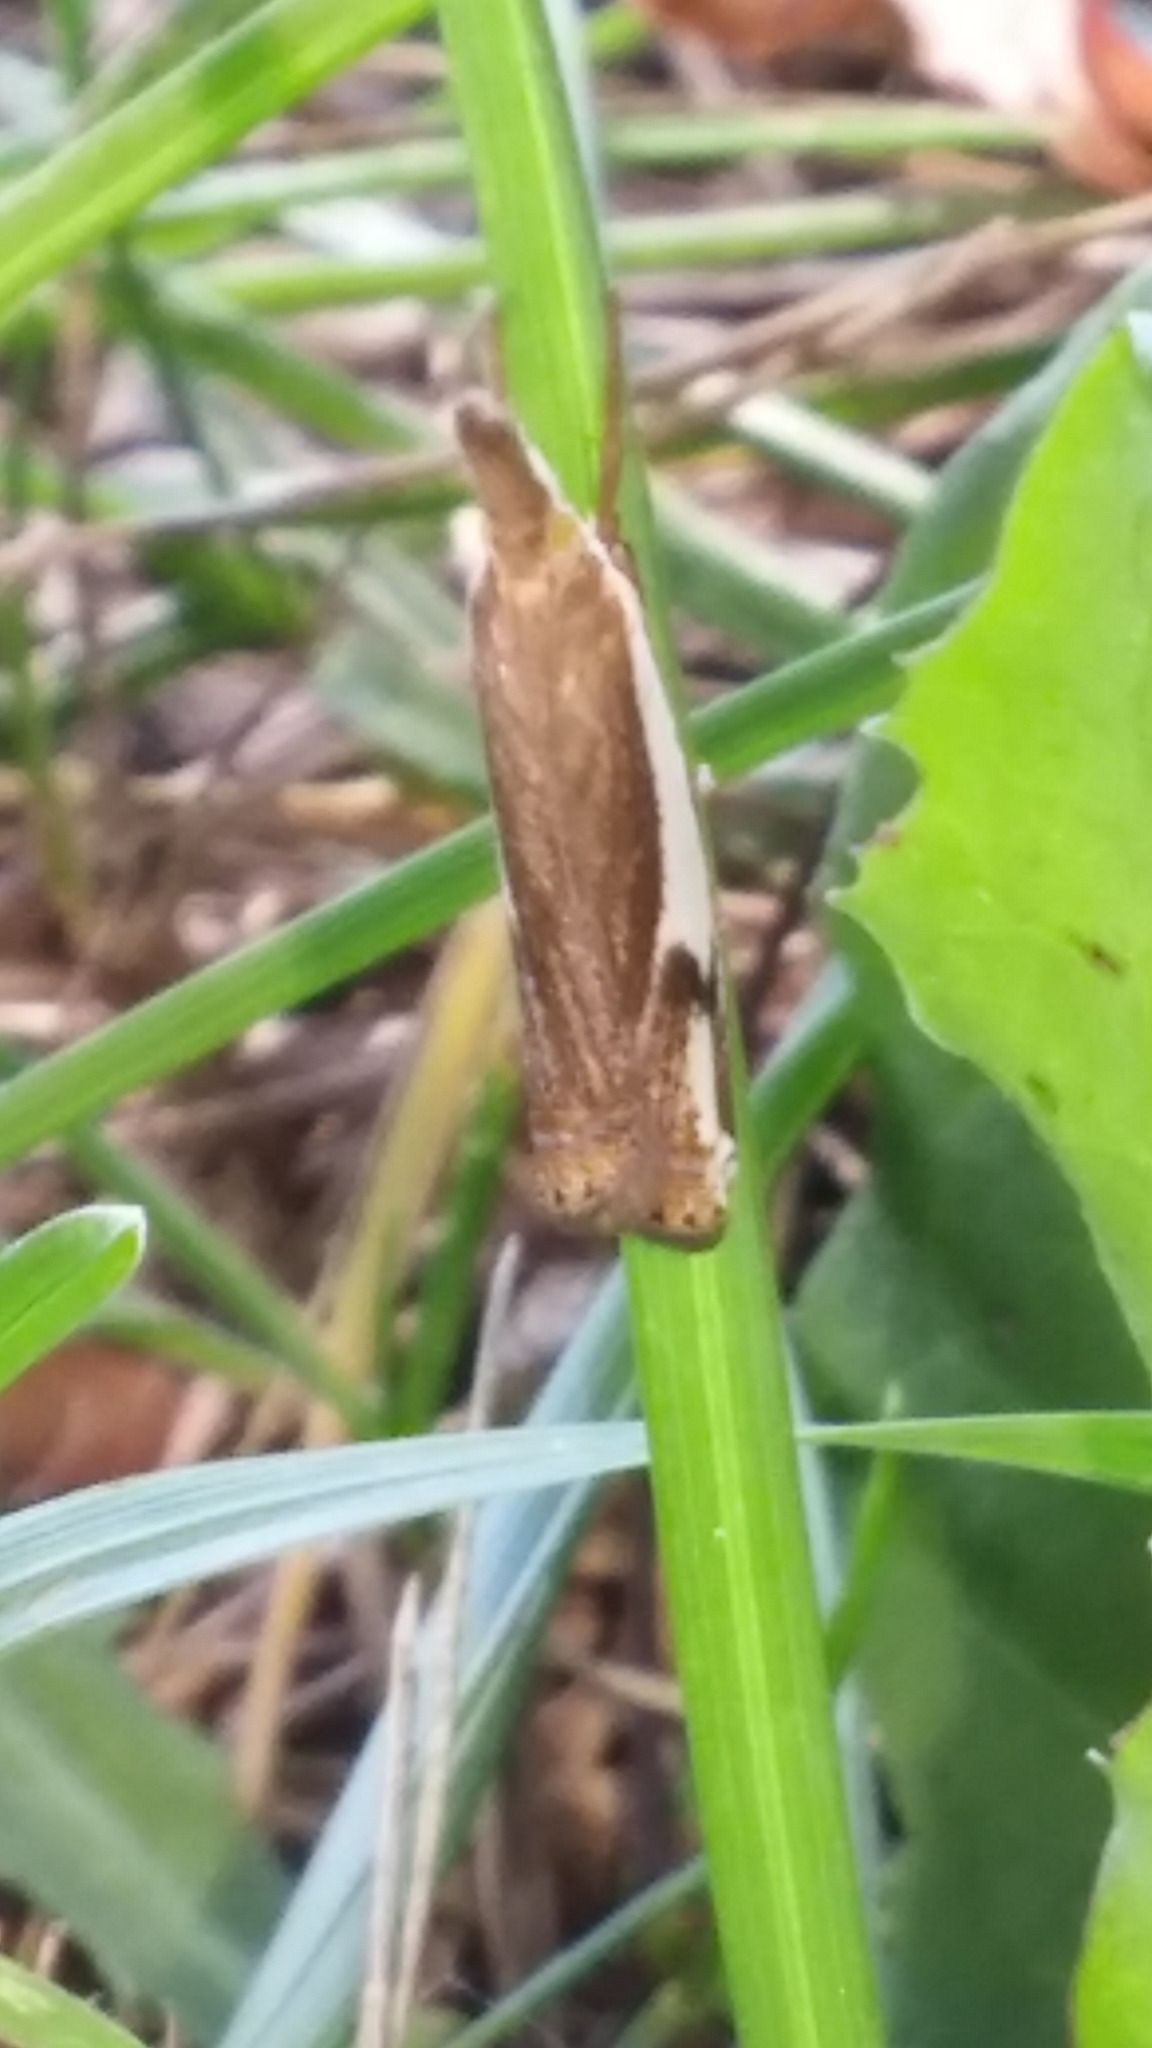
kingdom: Animalia
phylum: Arthropoda
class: Insecta
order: Lepidoptera
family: Crambidae
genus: Crambus
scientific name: Crambus agitatellus
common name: Double-banded grass-veneer
